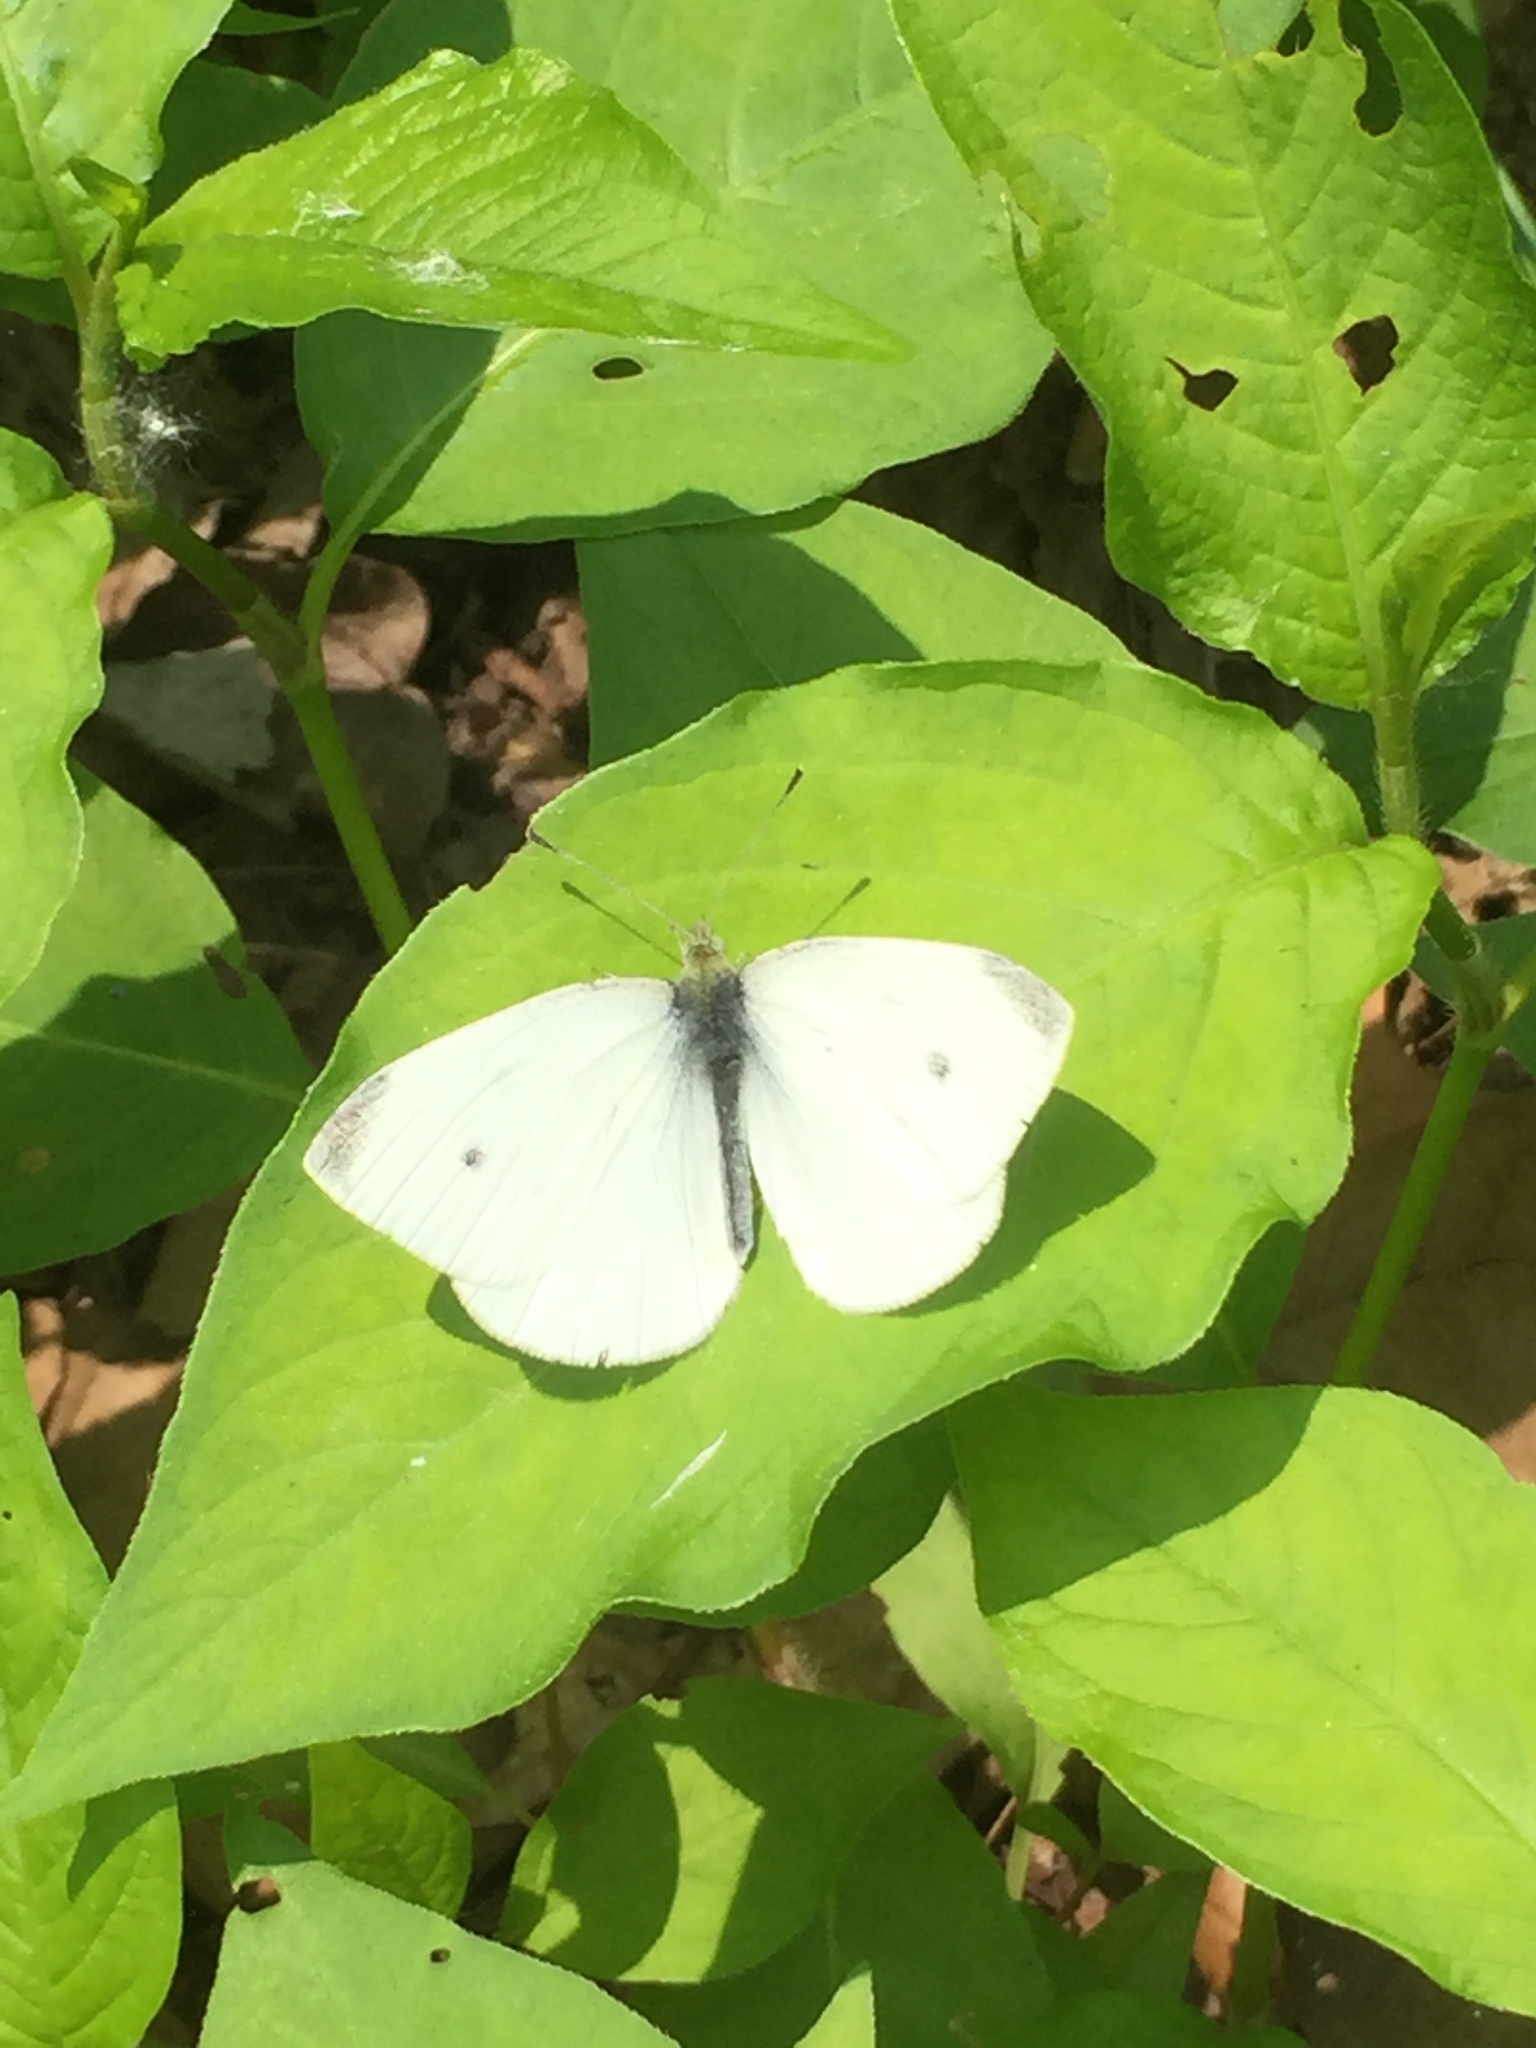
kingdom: Animalia
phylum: Arthropoda
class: Insecta
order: Lepidoptera
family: Pieridae
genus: Pieris
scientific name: Pieris rapae
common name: Small white
